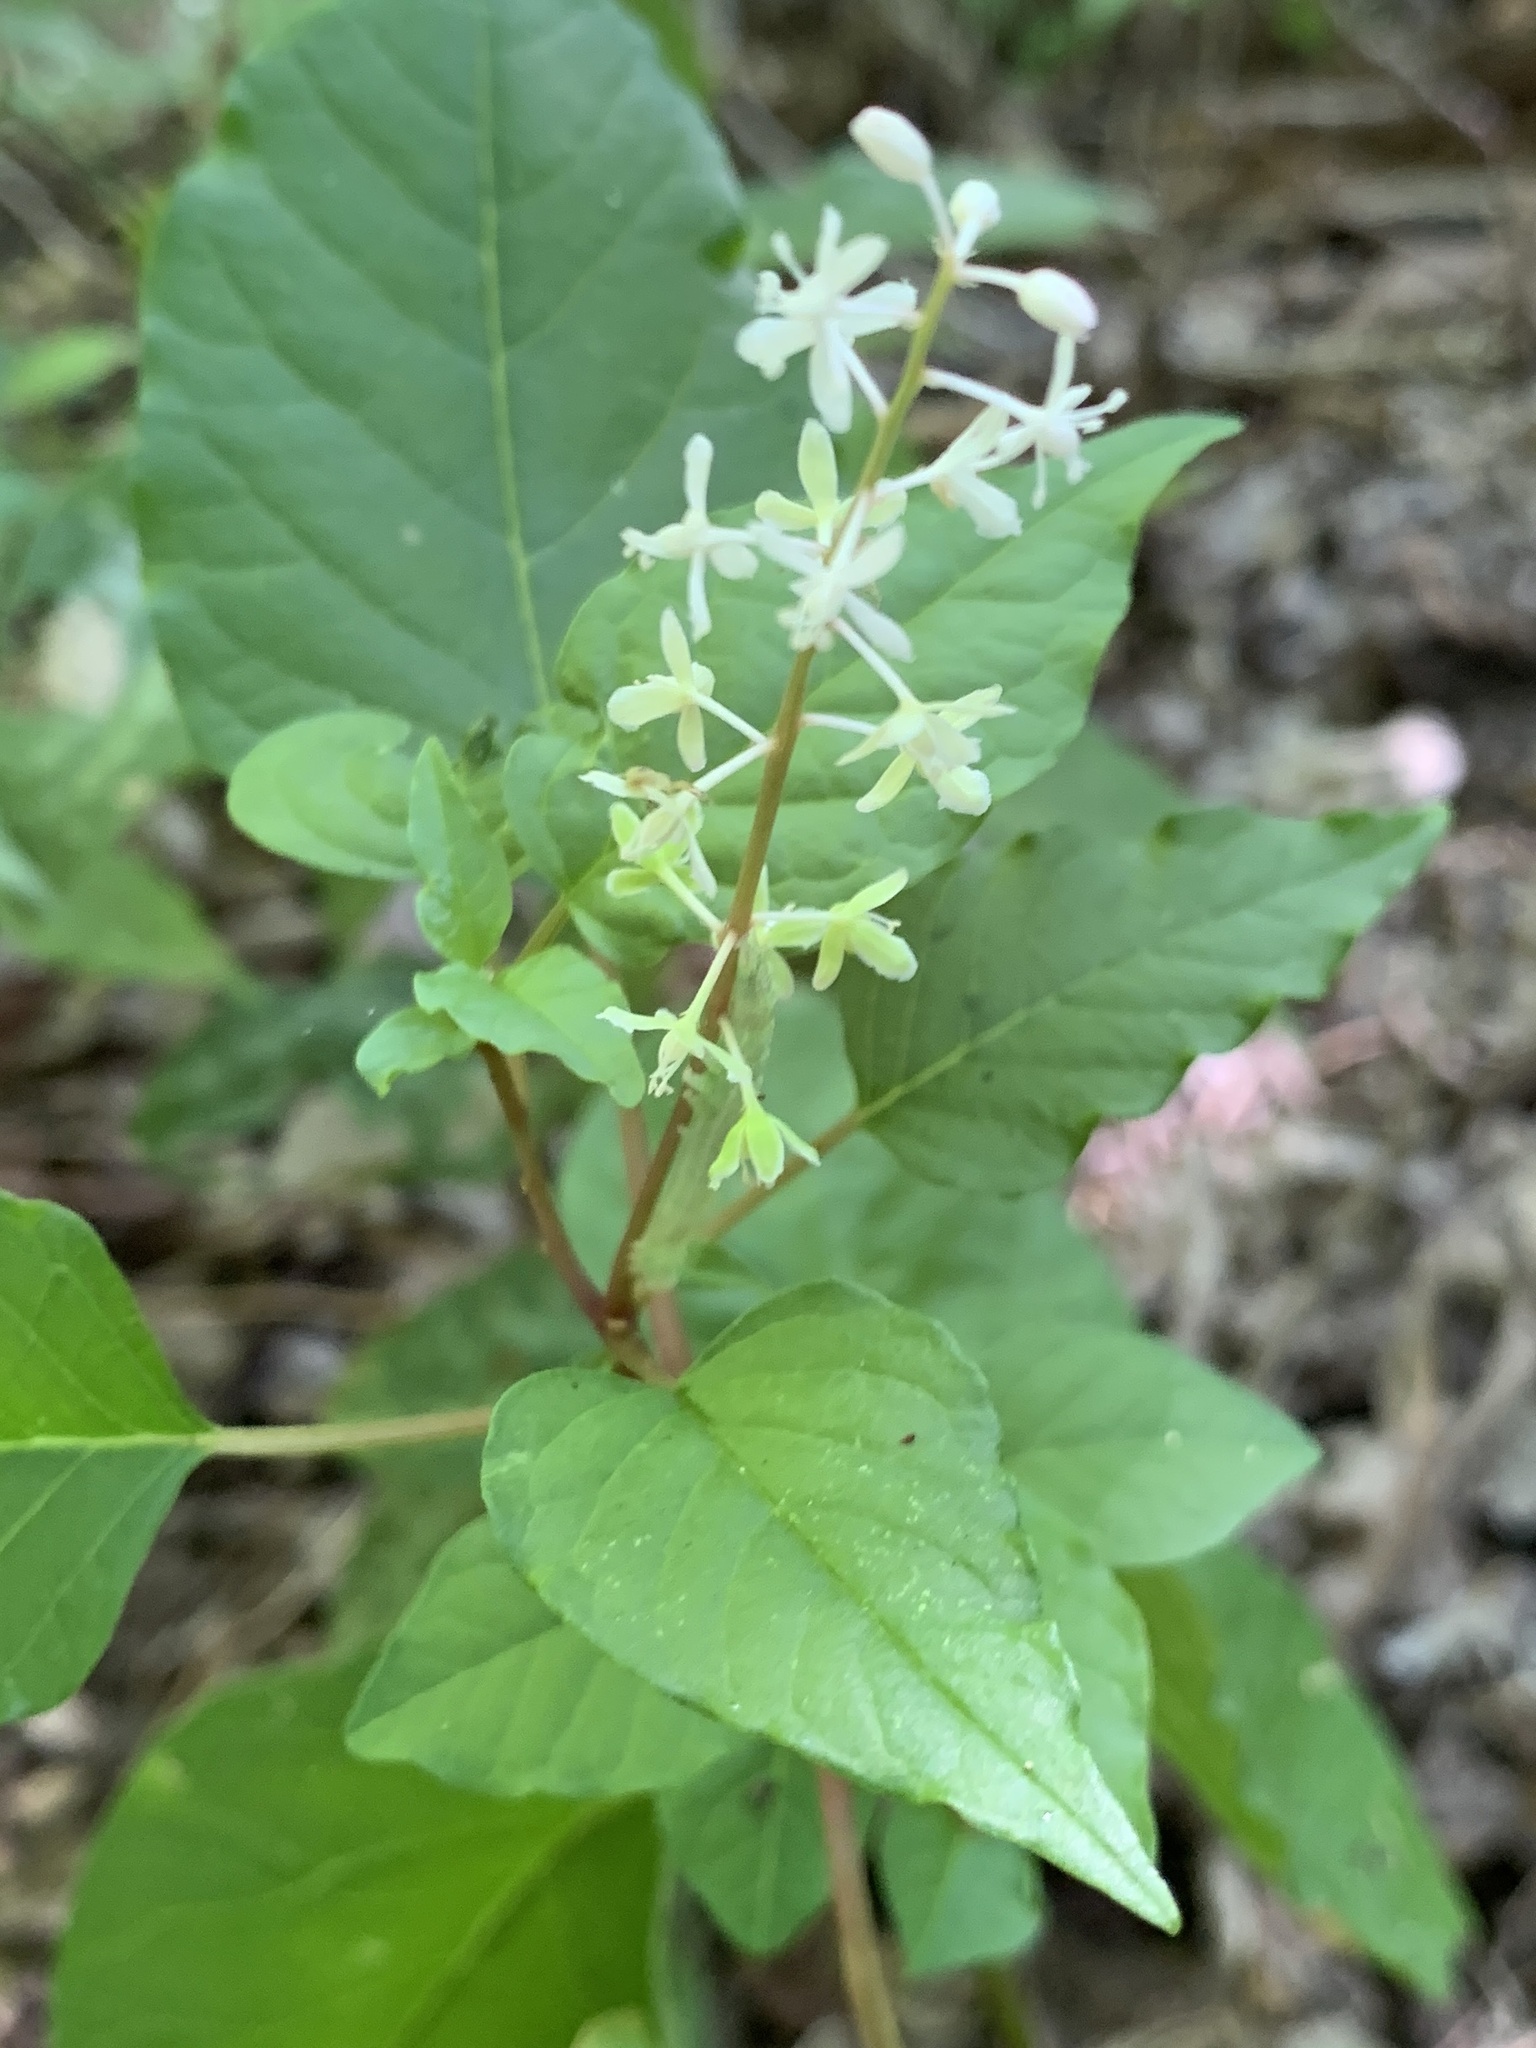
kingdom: Plantae
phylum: Tracheophyta
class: Magnoliopsida
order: Caryophyllales
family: Phytolaccaceae
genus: Rivina
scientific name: Rivina humilis
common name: Rougeplant
